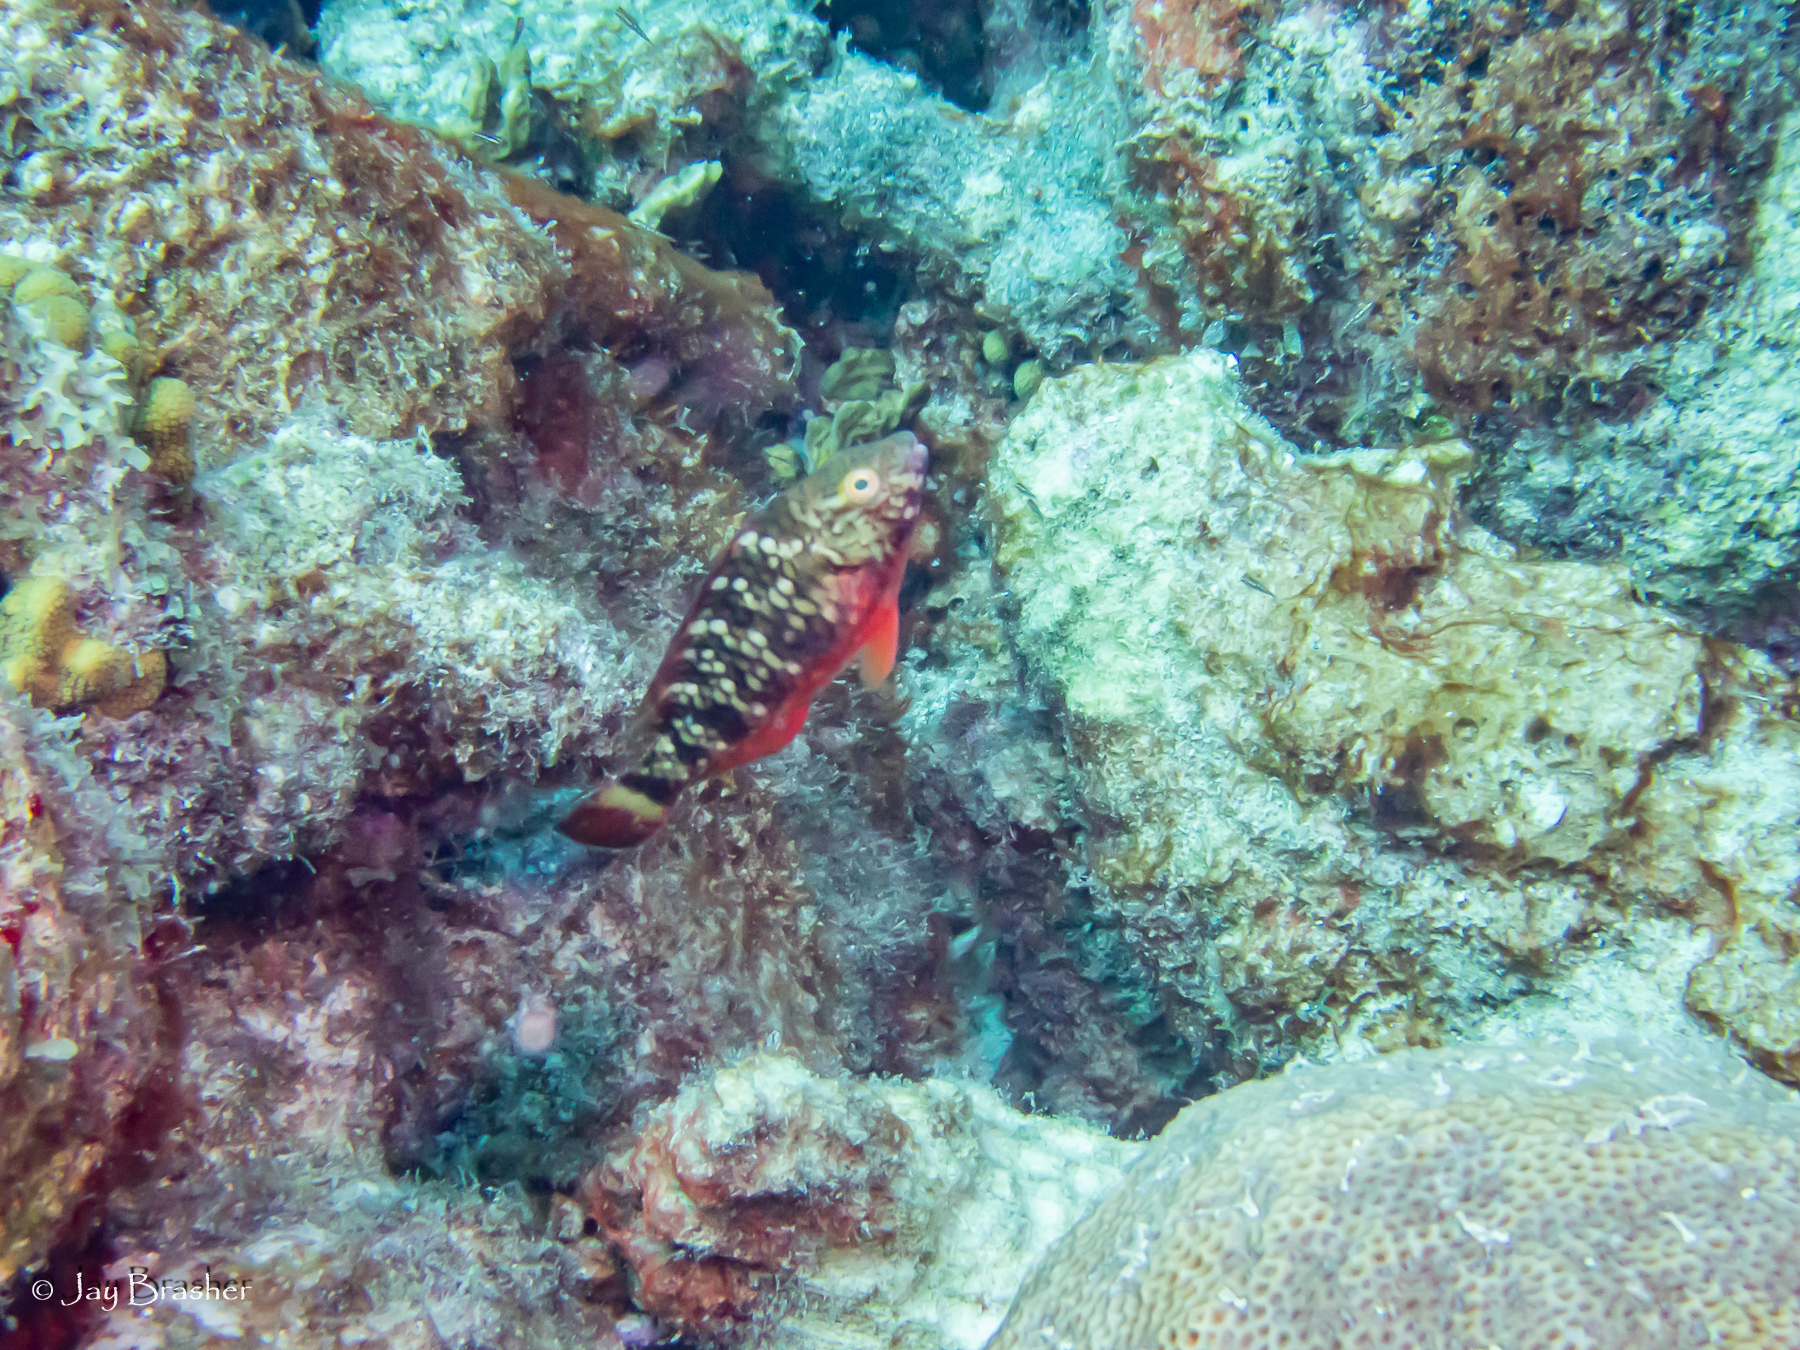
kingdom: Animalia
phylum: Chordata
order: Perciformes
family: Scaridae
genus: Sparisoma
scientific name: Sparisoma viride
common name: Stoplight parrotfish
